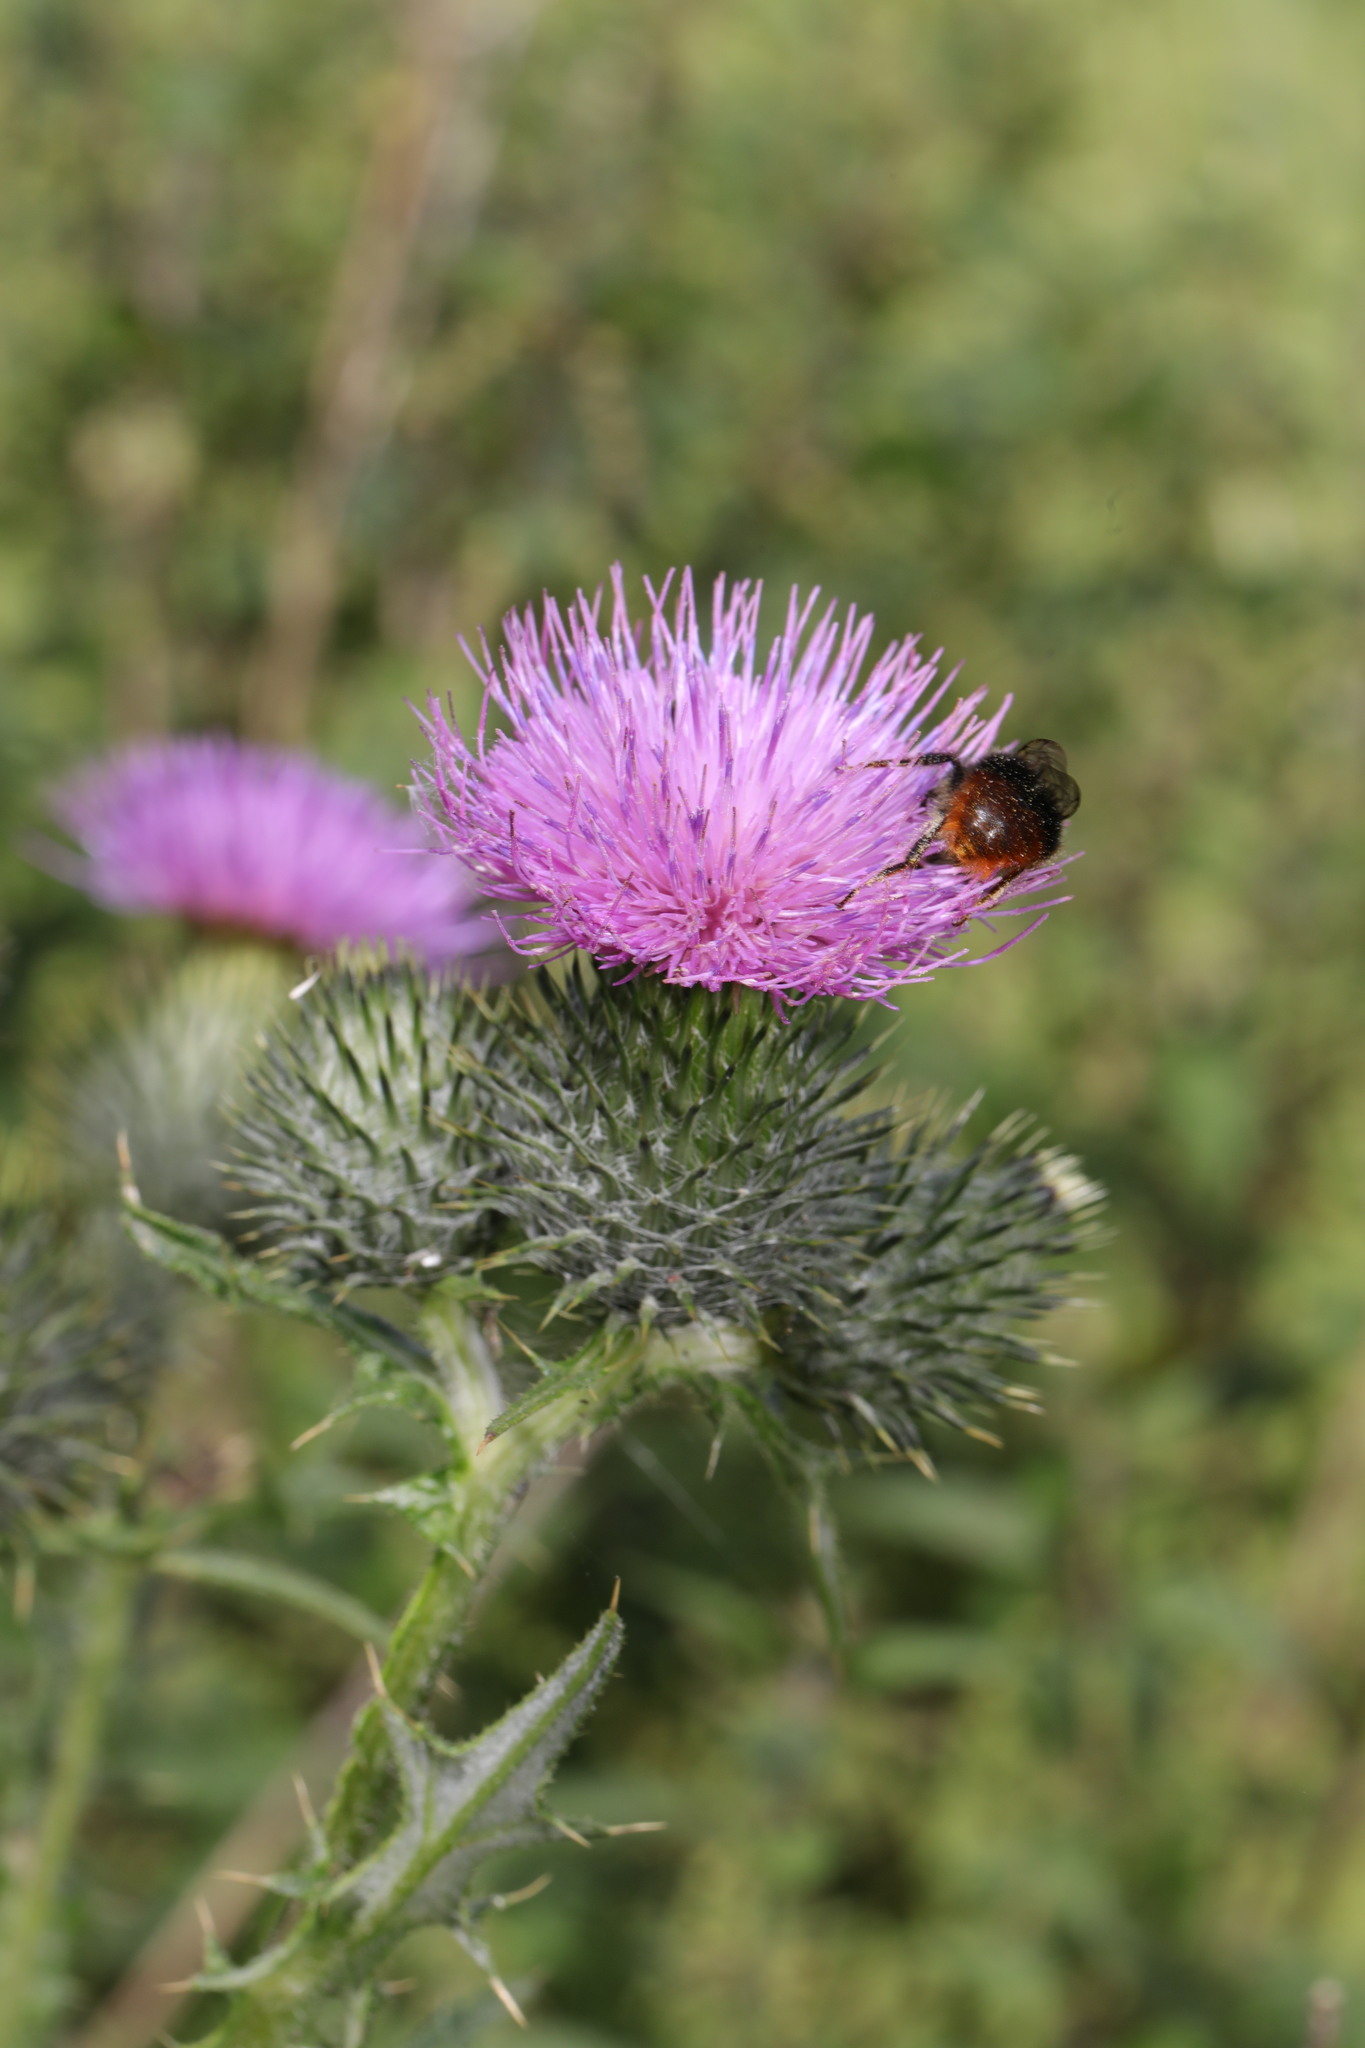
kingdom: Animalia
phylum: Arthropoda
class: Insecta
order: Hymenoptera
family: Apidae
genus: Bombus
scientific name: Bombus lapidarius
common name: Large red-tailed humble-bee
